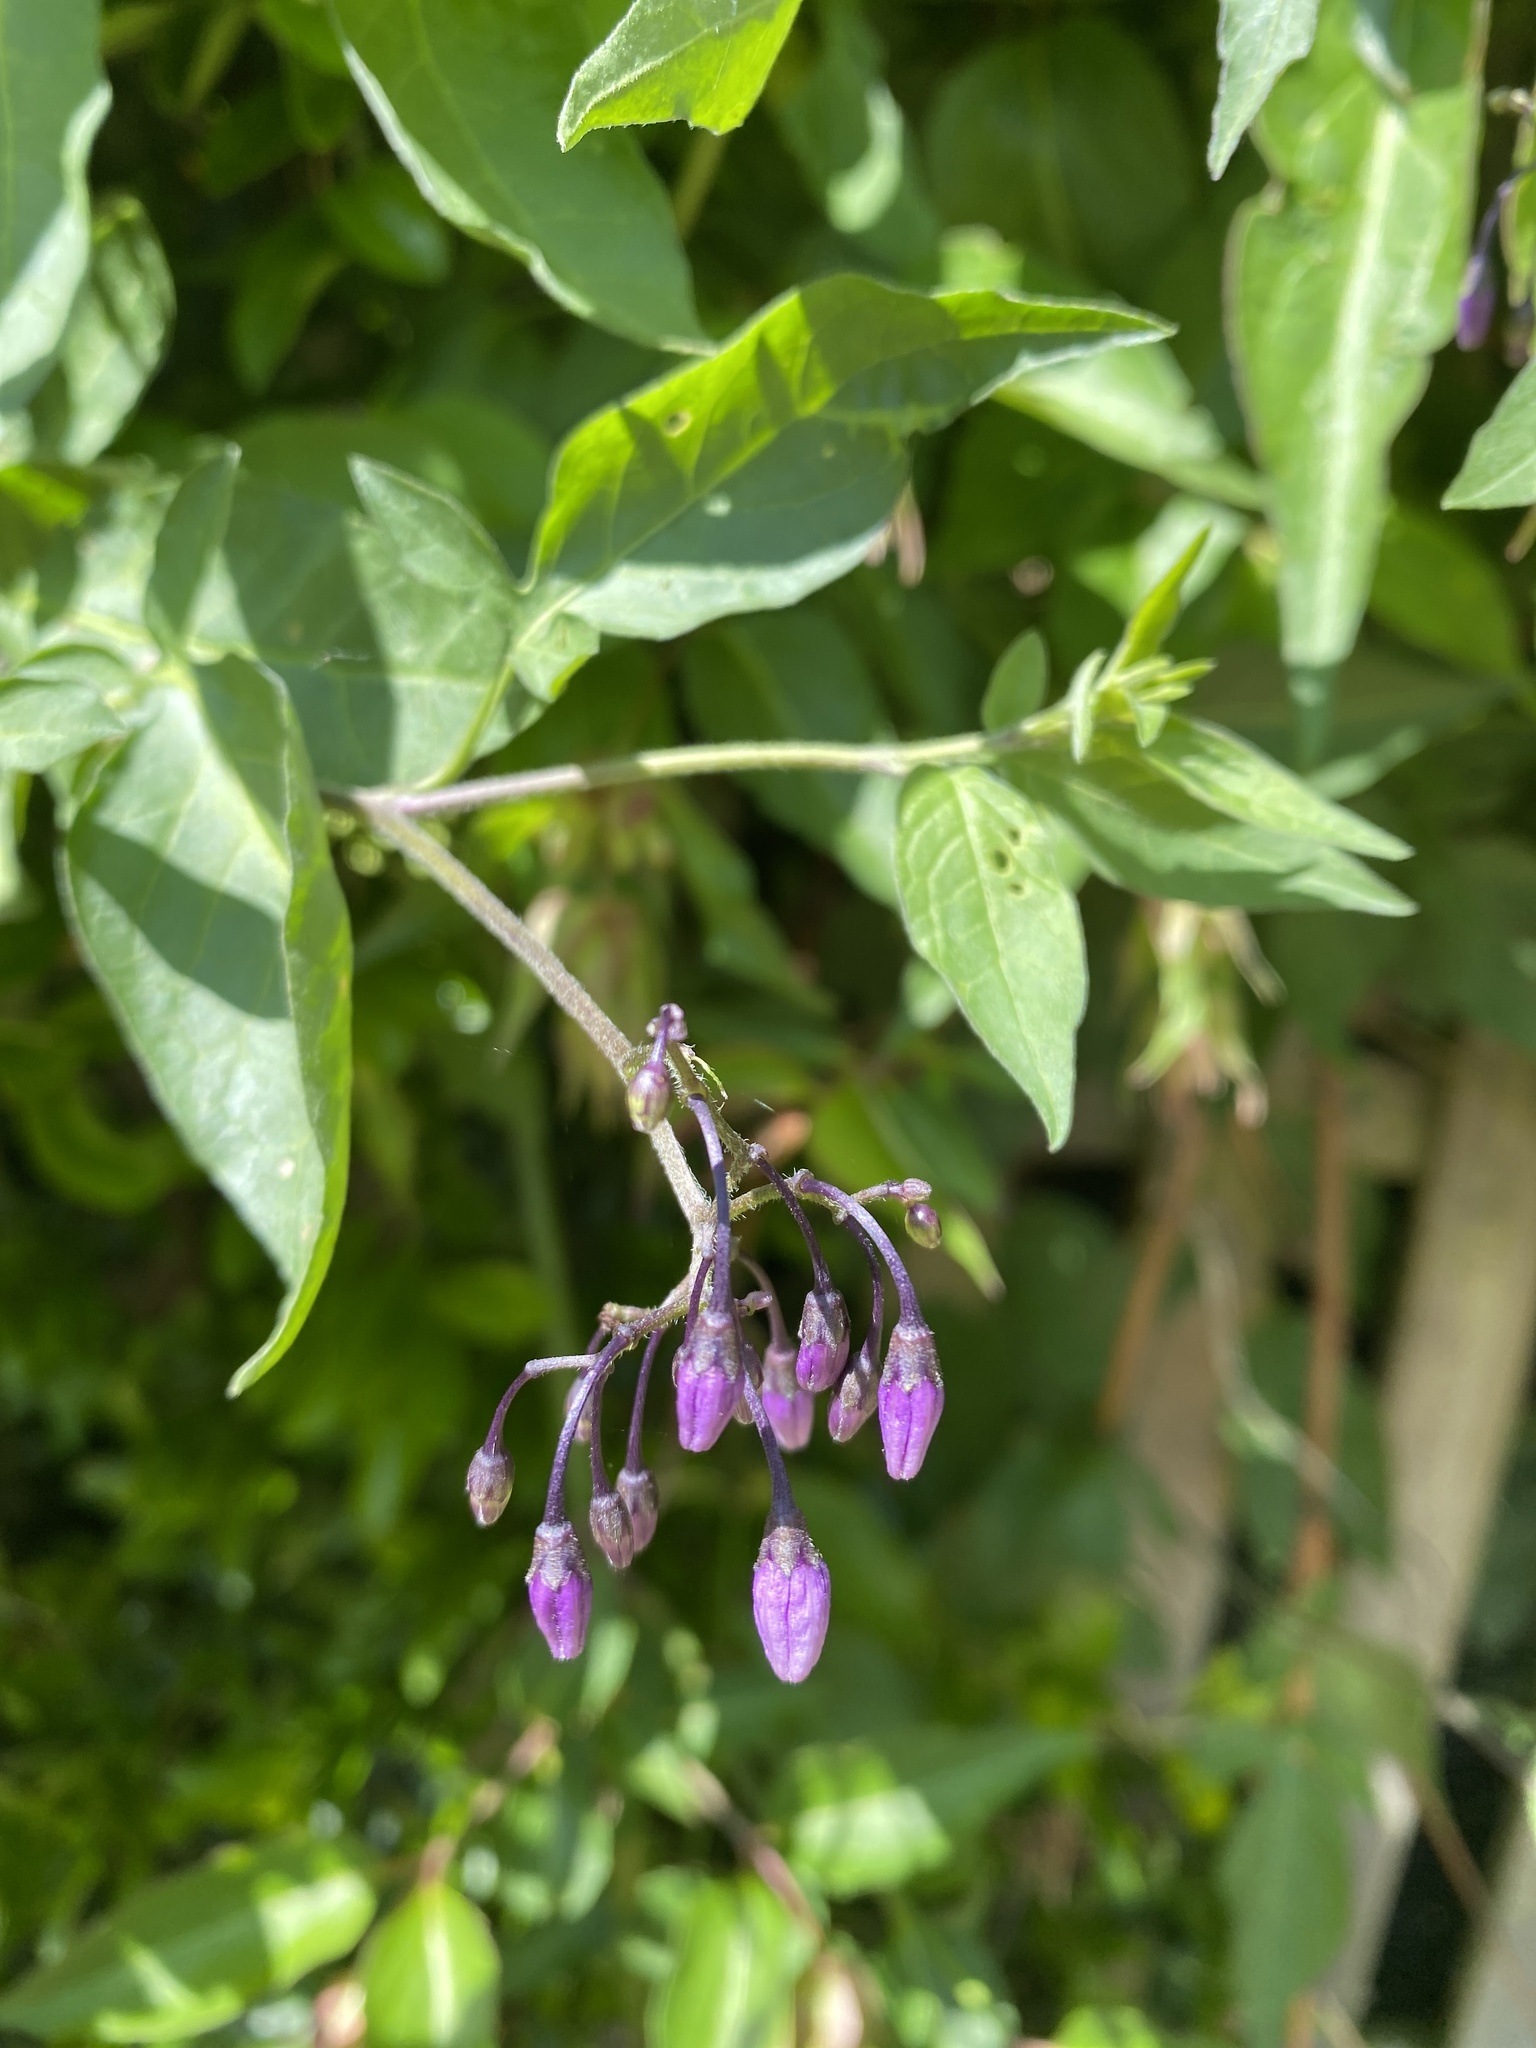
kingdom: Plantae
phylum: Tracheophyta
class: Magnoliopsida
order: Solanales
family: Solanaceae
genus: Solanum
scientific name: Solanum dulcamara
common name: Climbing nightshade
